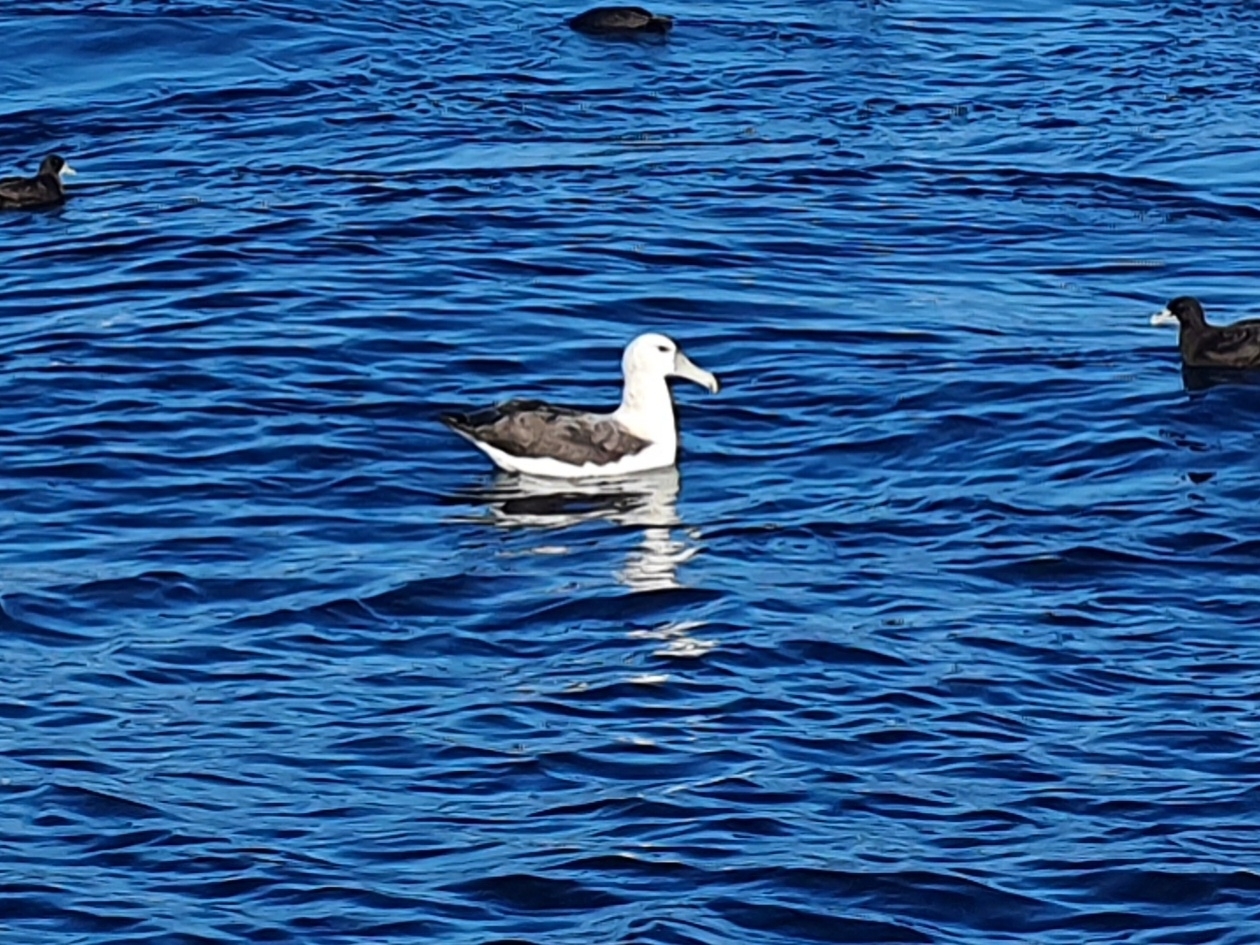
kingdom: Animalia
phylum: Chordata
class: Aves
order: Procellariiformes
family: Diomedeidae
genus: Thalassarche
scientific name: Thalassarche cauta
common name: Shy albatross
